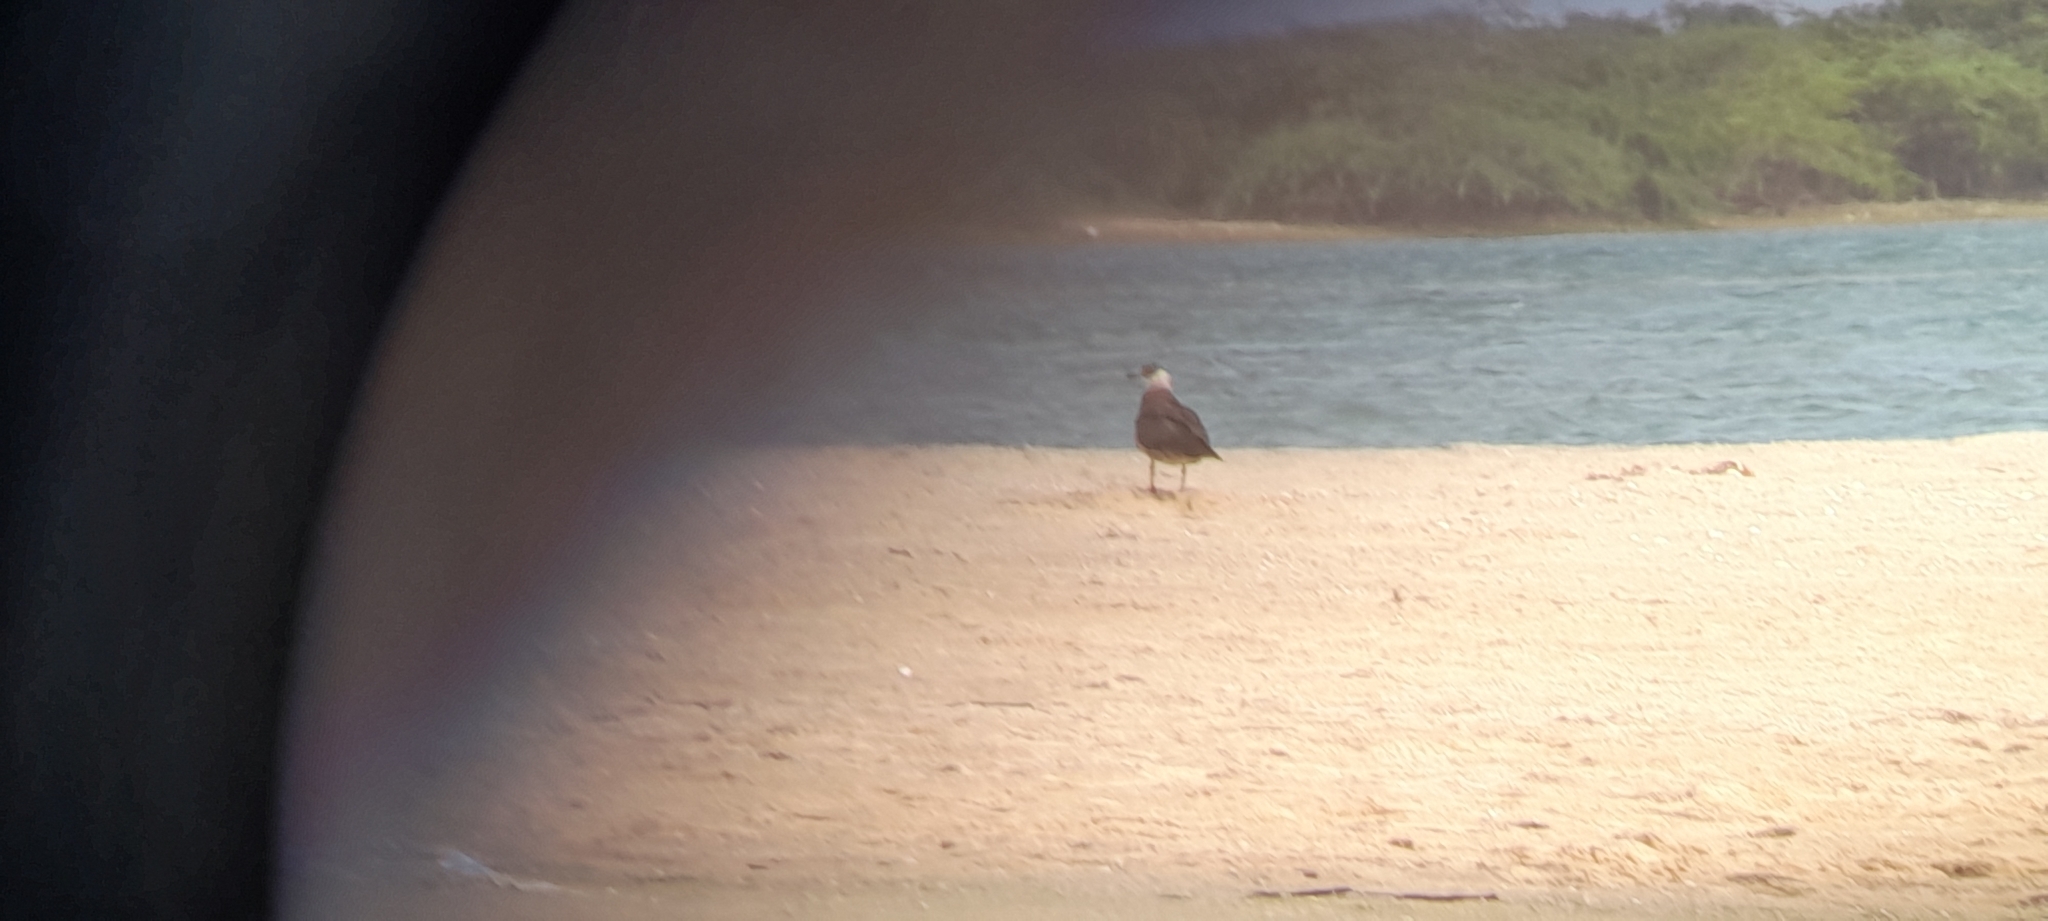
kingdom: Animalia
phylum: Chordata
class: Aves
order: Charadriiformes
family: Stercorariidae
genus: Stercorarius
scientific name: Stercorarius parasiticus
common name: Parasitic jaeger
